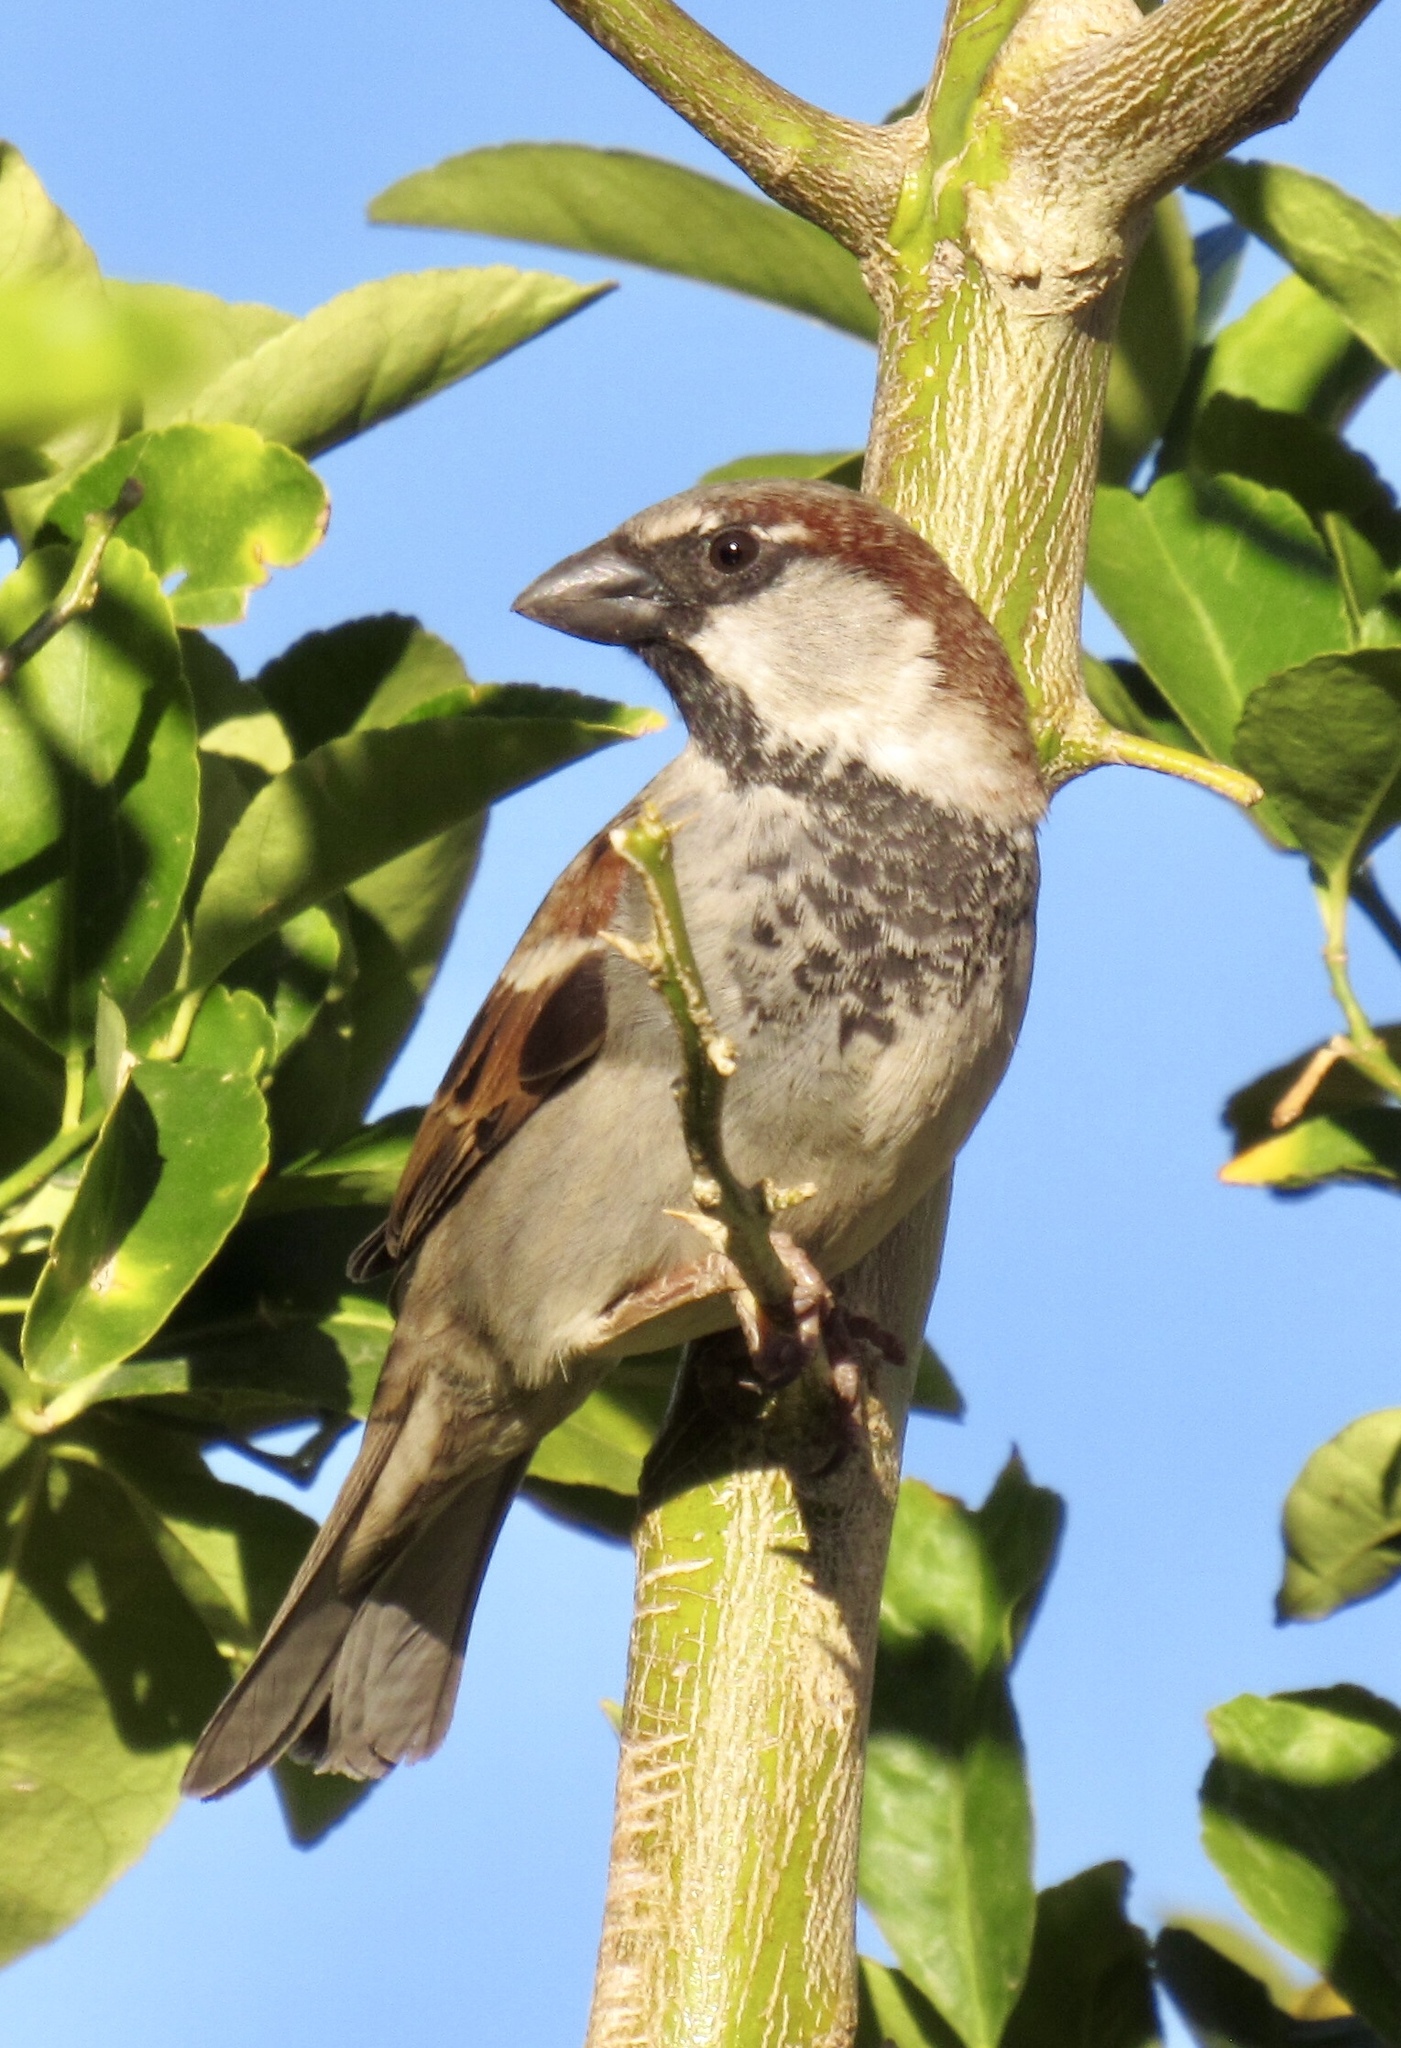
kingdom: Animalia
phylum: Chordata
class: Aves
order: Passeriformes
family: Passeridae
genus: Passer
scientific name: Passer domesticus
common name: House sparrow
